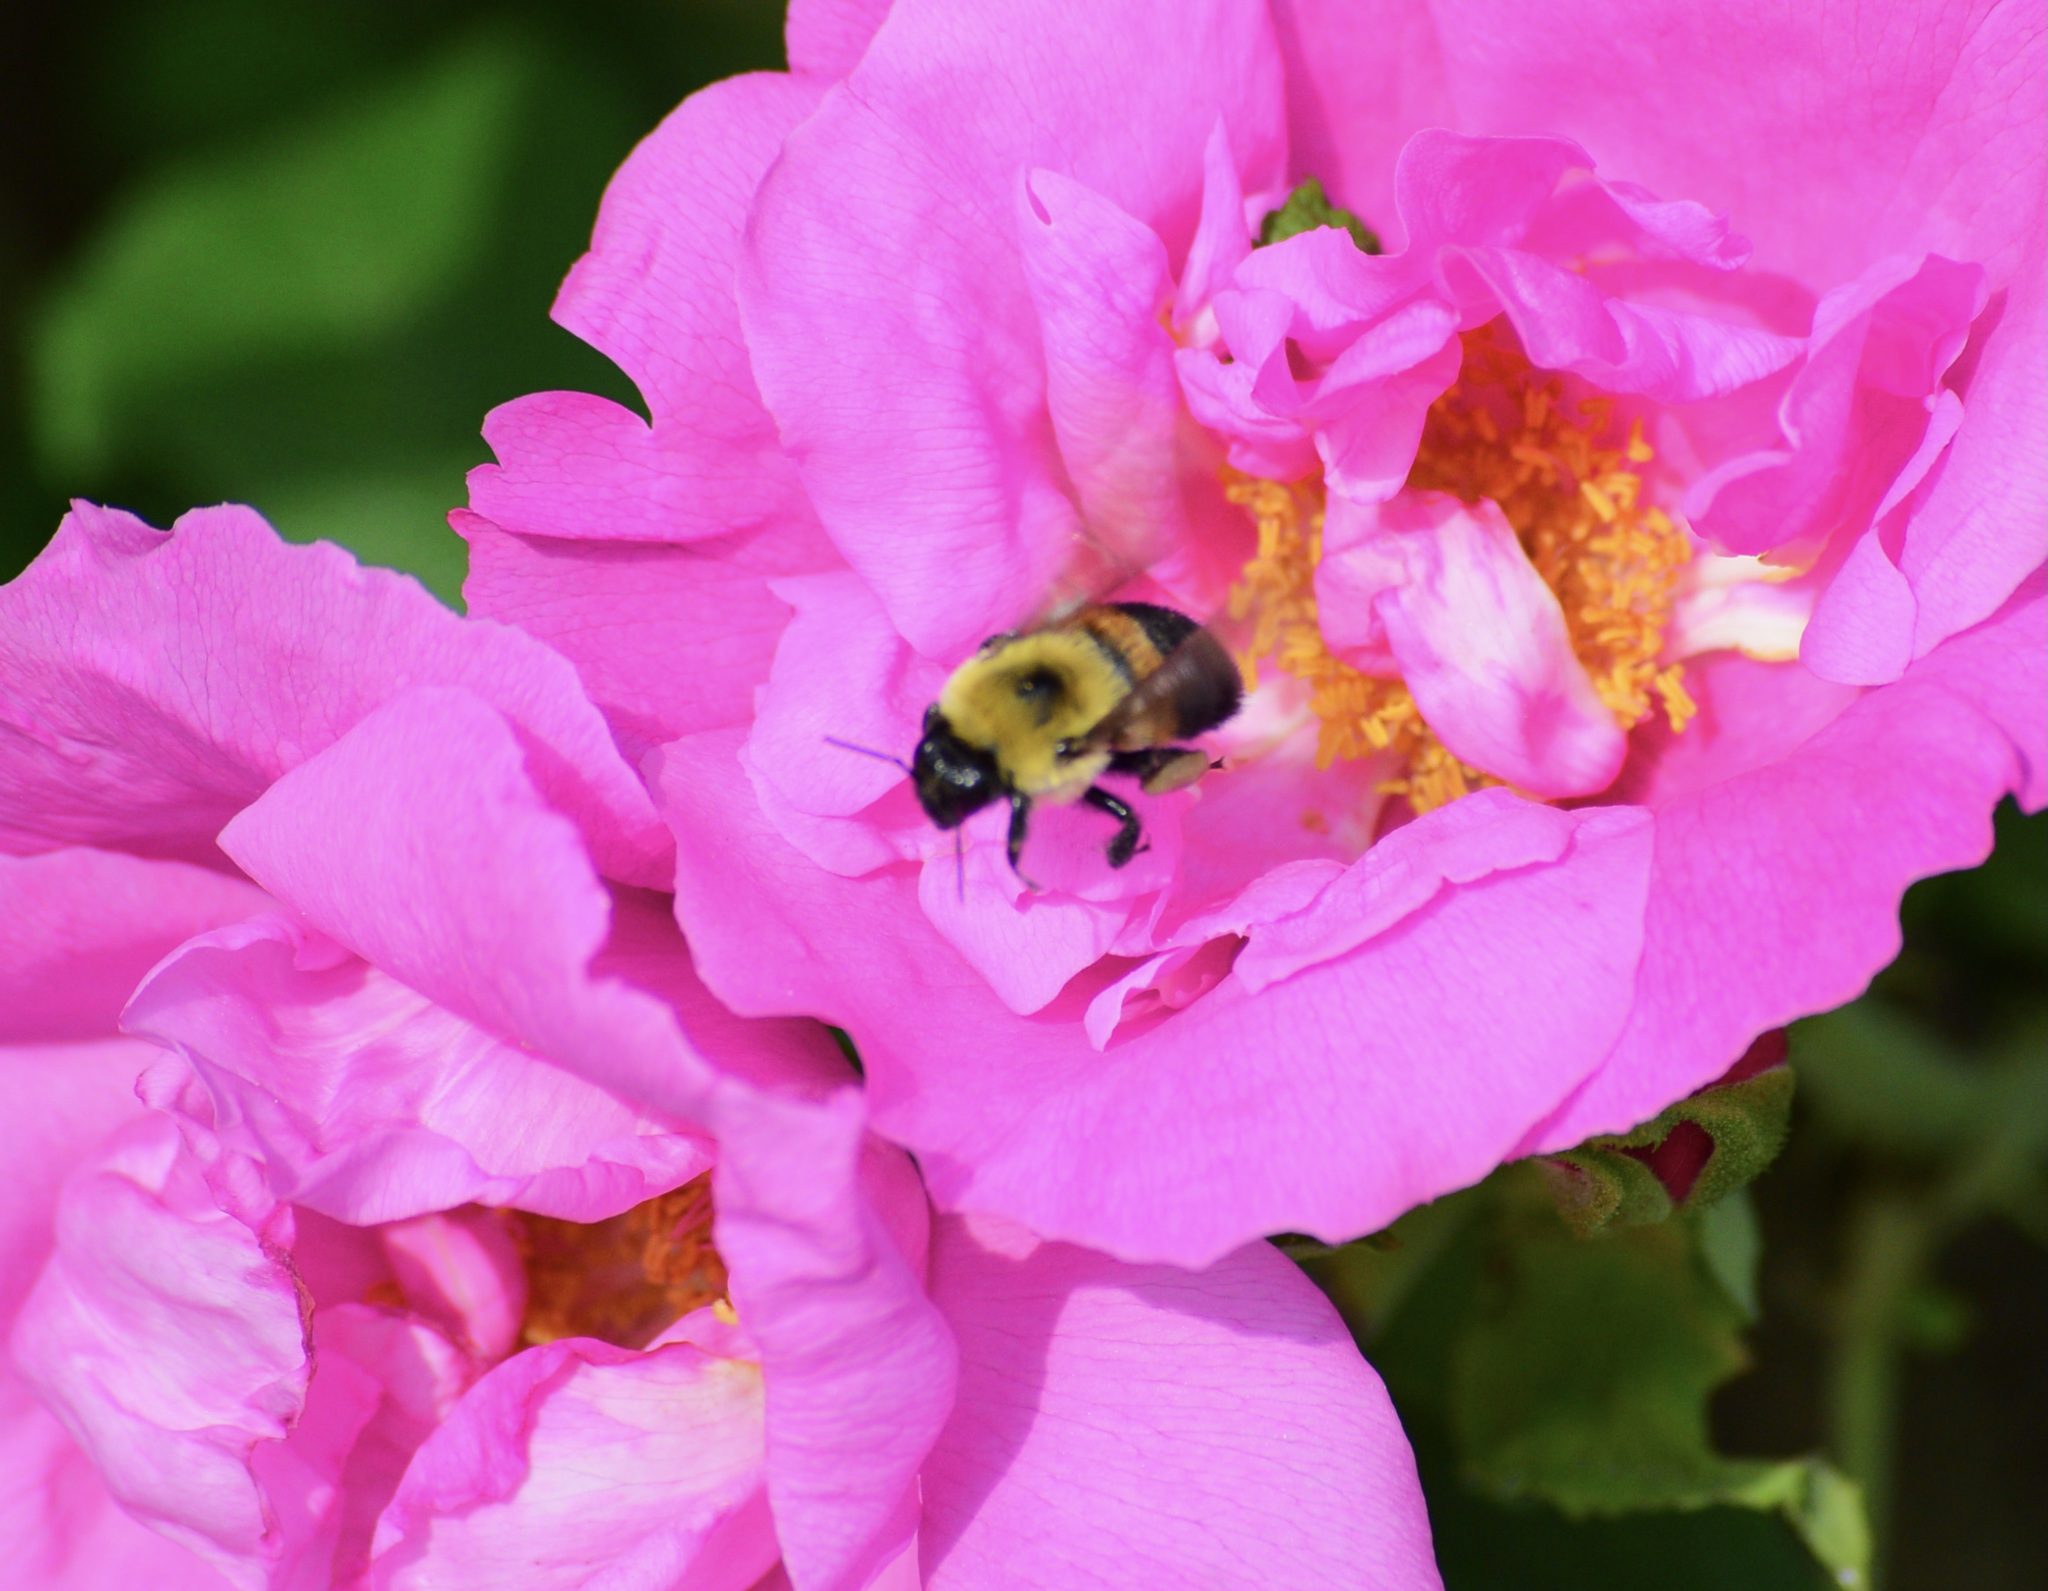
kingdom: Animalia
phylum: Arthropoda
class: Insecta
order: Hymenoptera
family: Apidae
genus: Bombus
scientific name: Bombus griseocollis
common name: Brown-belted bumble bee
